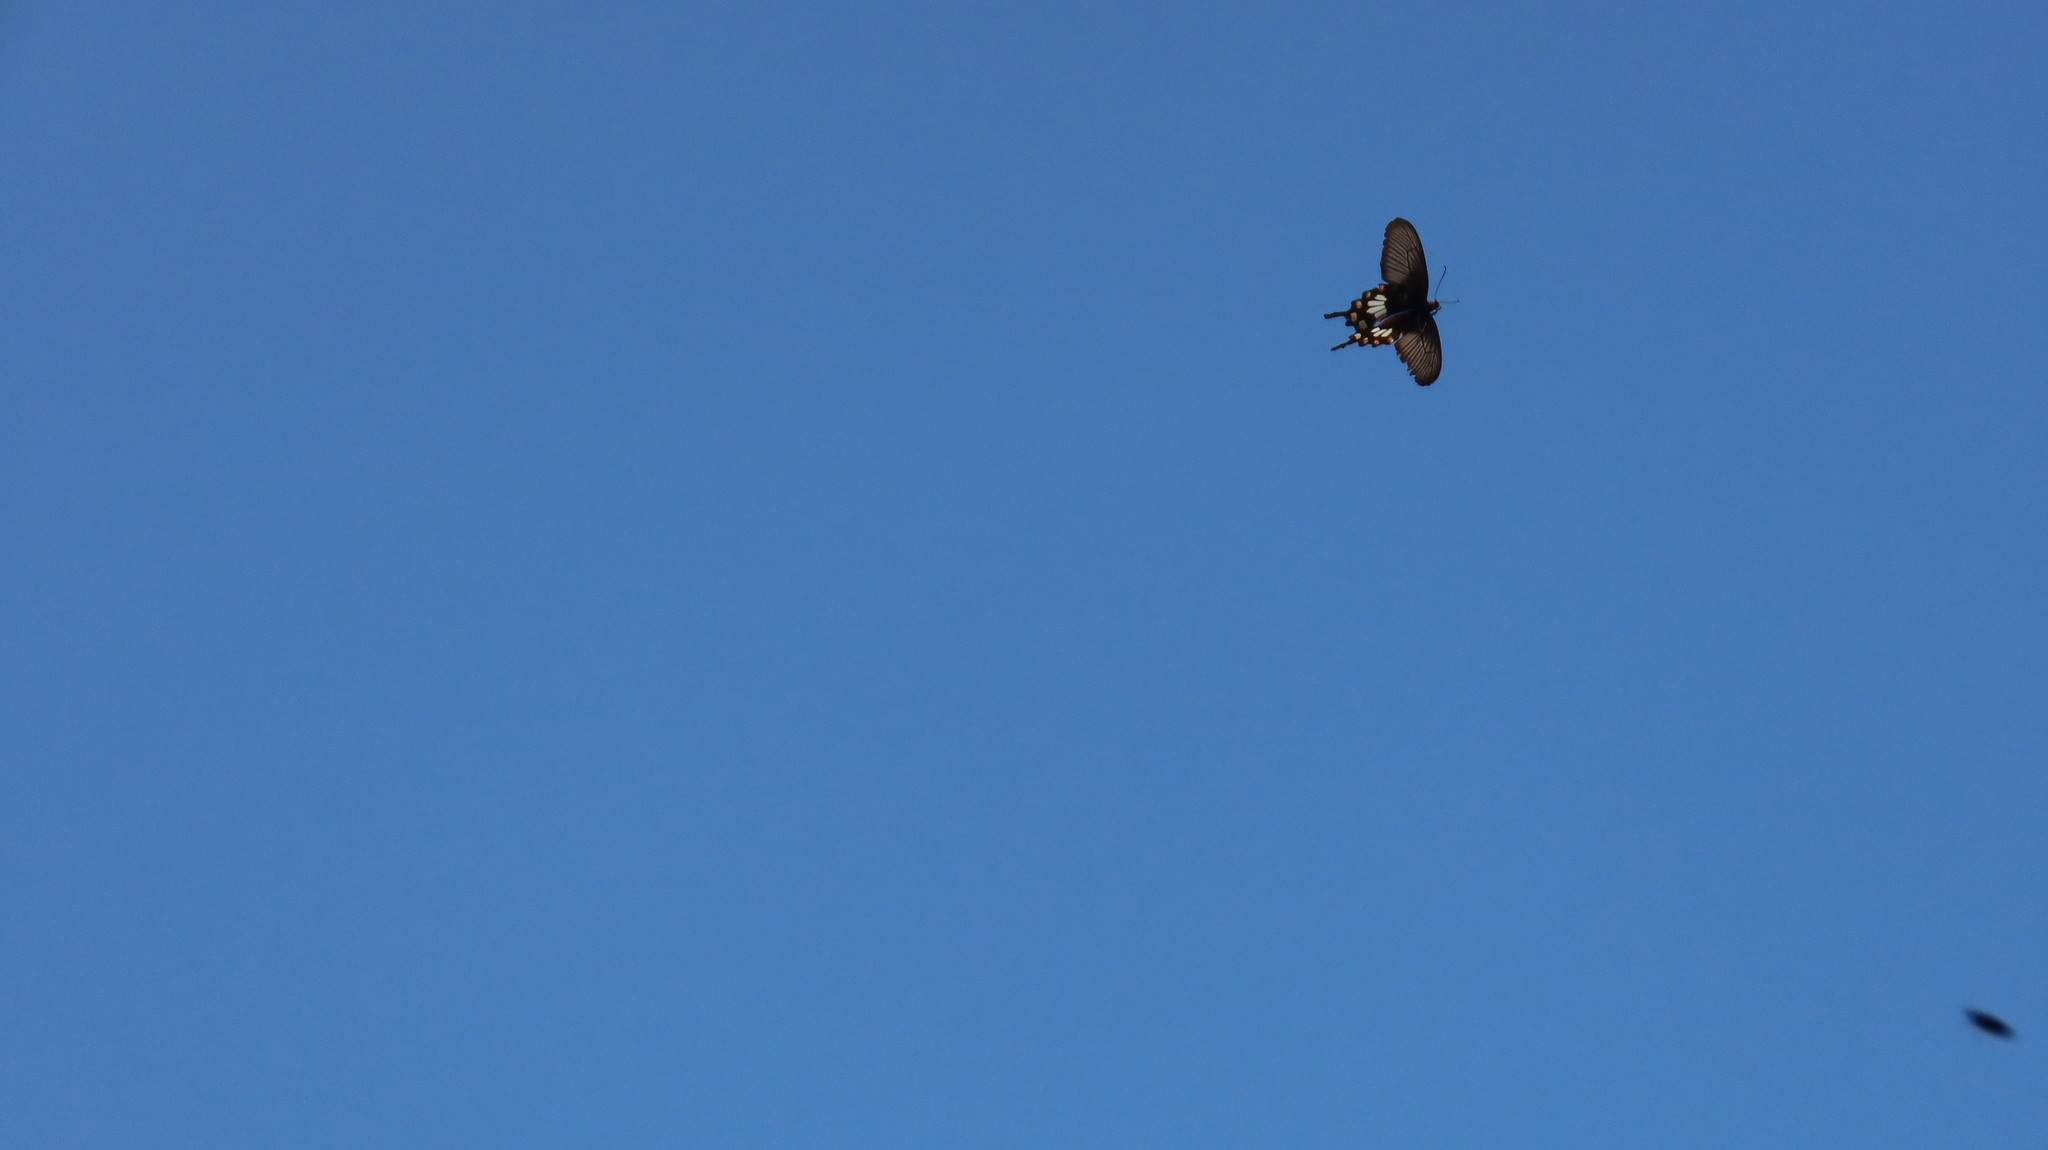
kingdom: Animalia
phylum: Arthropoda
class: Insecta
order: Lepidoptera
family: Papilionidae
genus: Pachliopta
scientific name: Pachliopta aristolochiae
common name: Common rose
